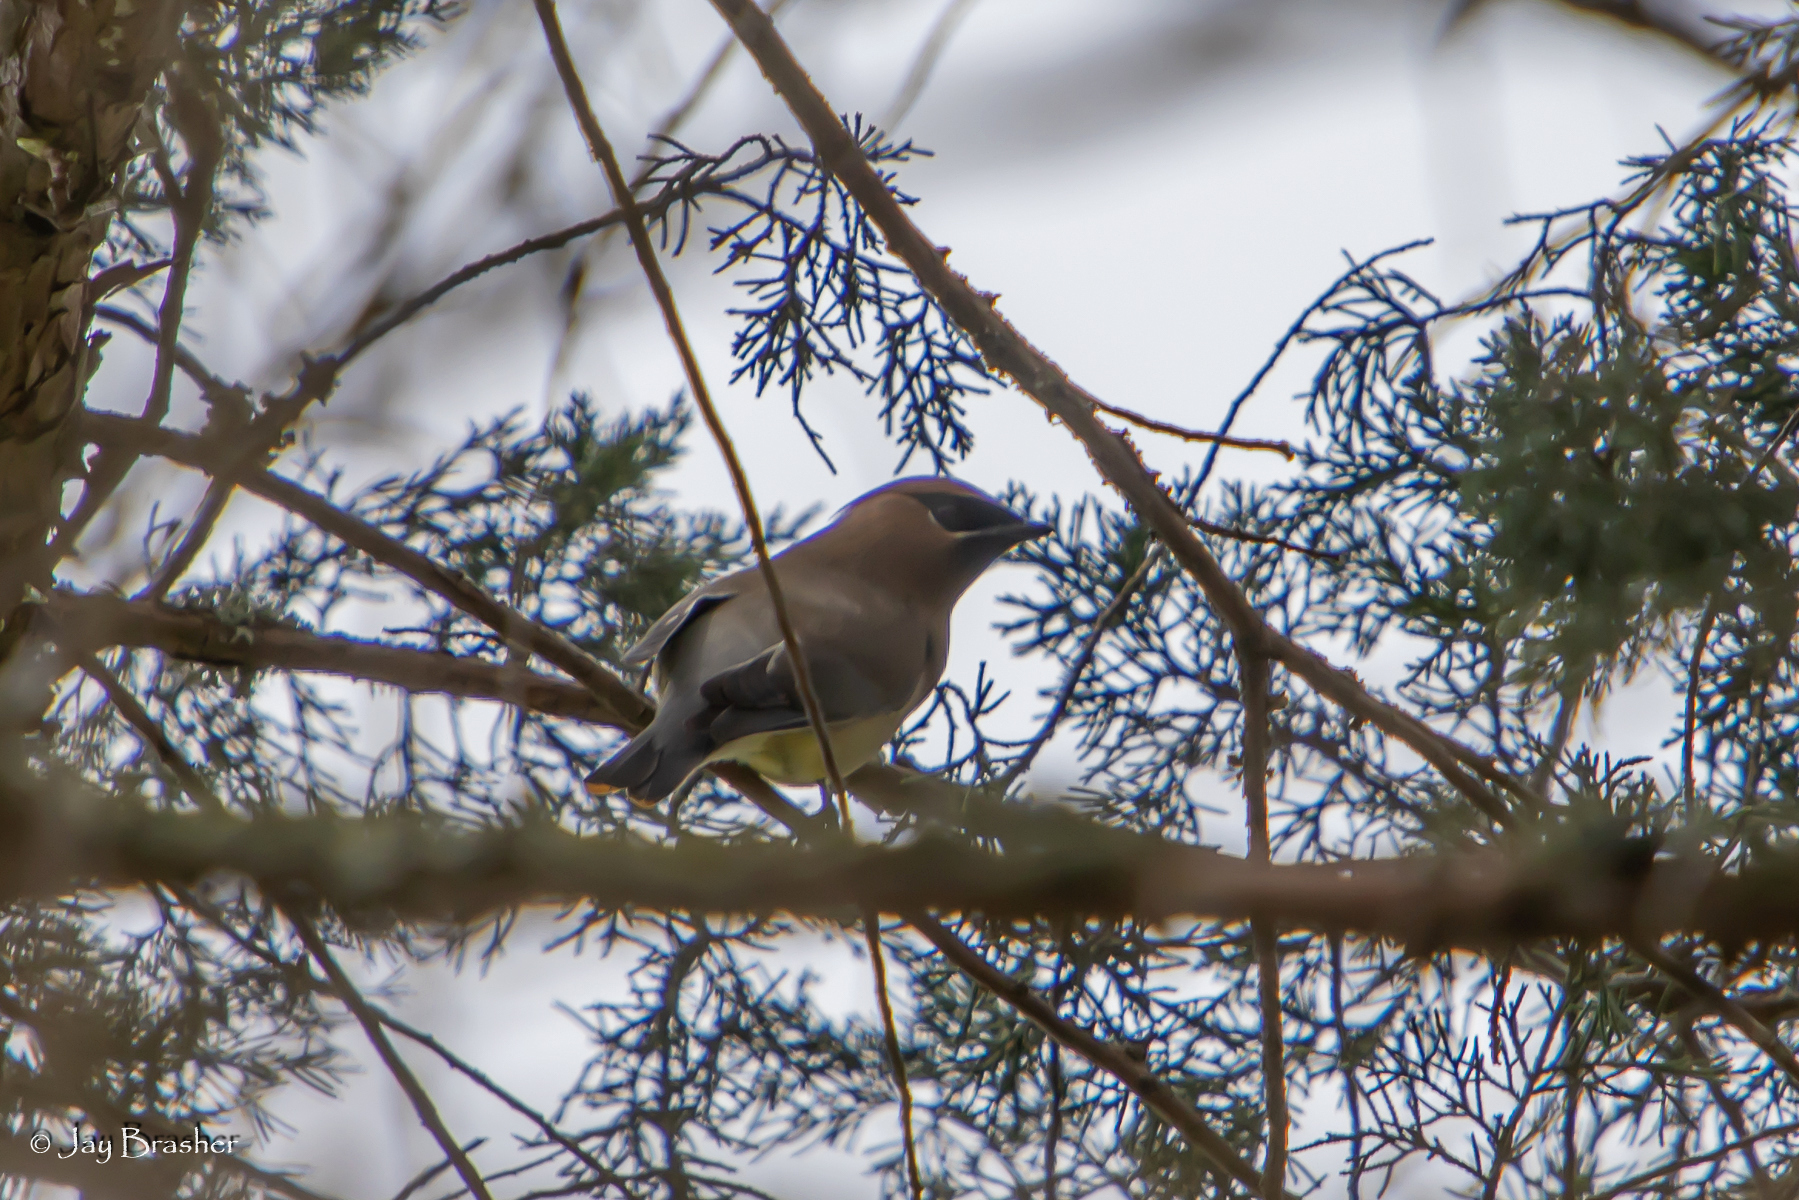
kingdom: Animalia
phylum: Chordata
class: Aves
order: Passeriformes
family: Bombycillidae
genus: Bombycilla
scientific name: Bombycilla cedrorum
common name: Cedar waxwing
